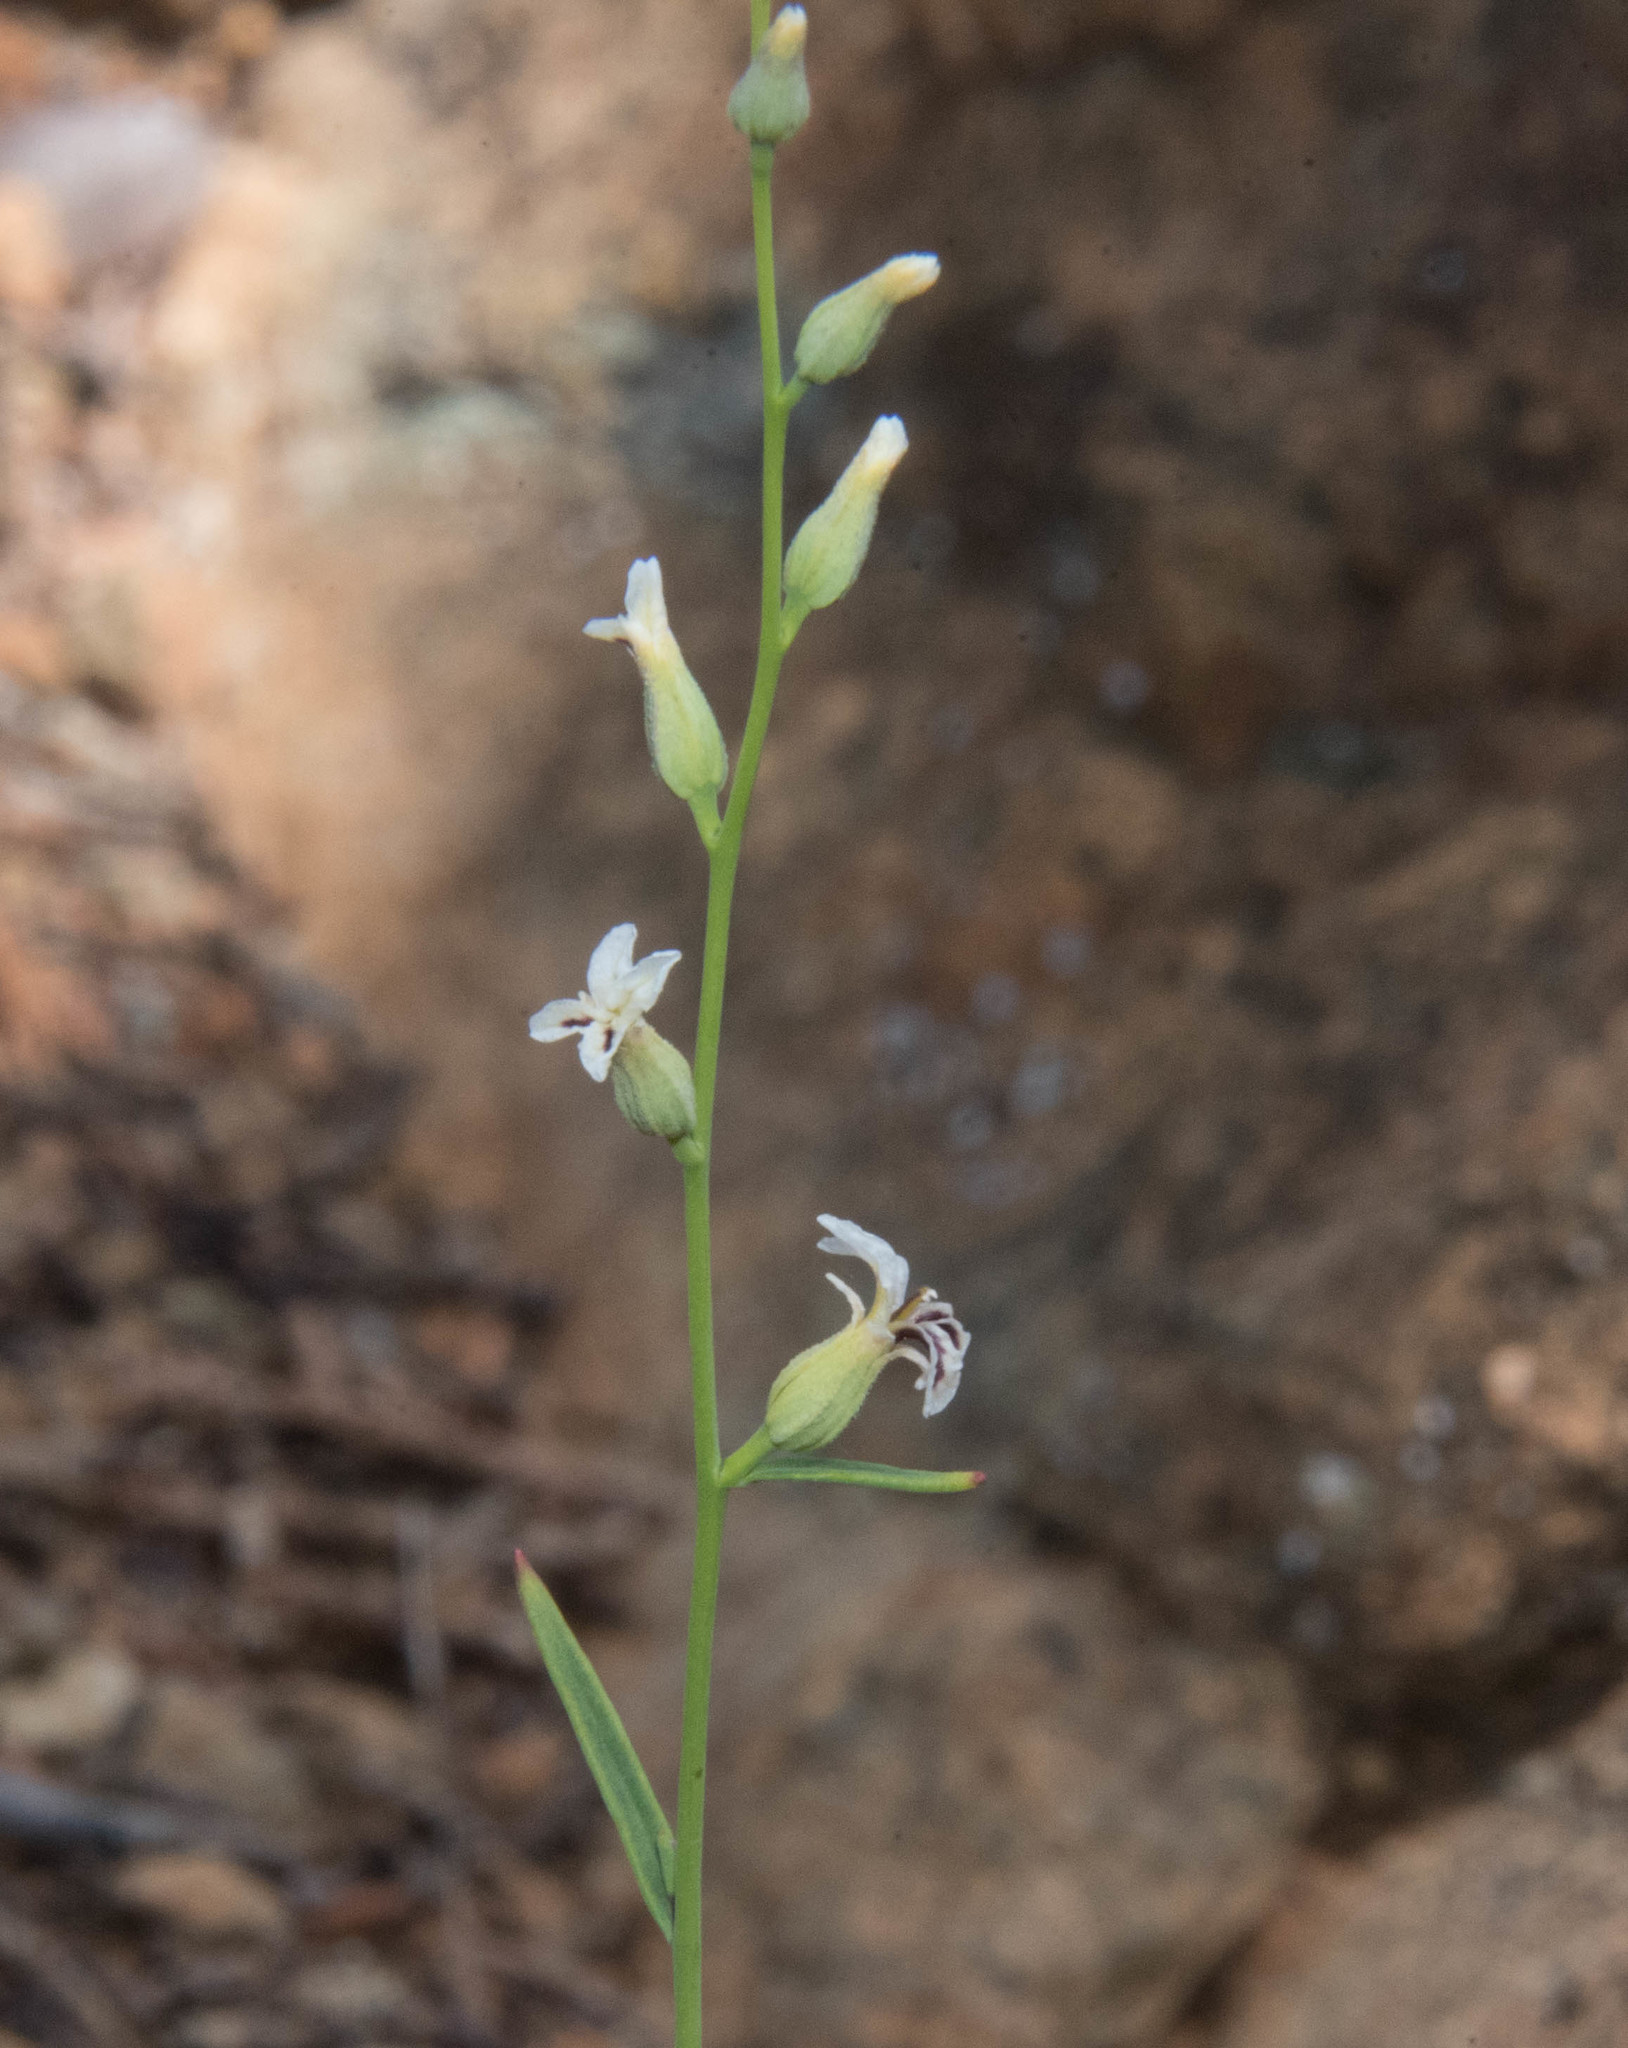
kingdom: Plantae
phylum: Tracheophyta
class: Magnoliopsida
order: Brassicales
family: Brassicaceae
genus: Streptanthus
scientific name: Streptanthus barbiger
